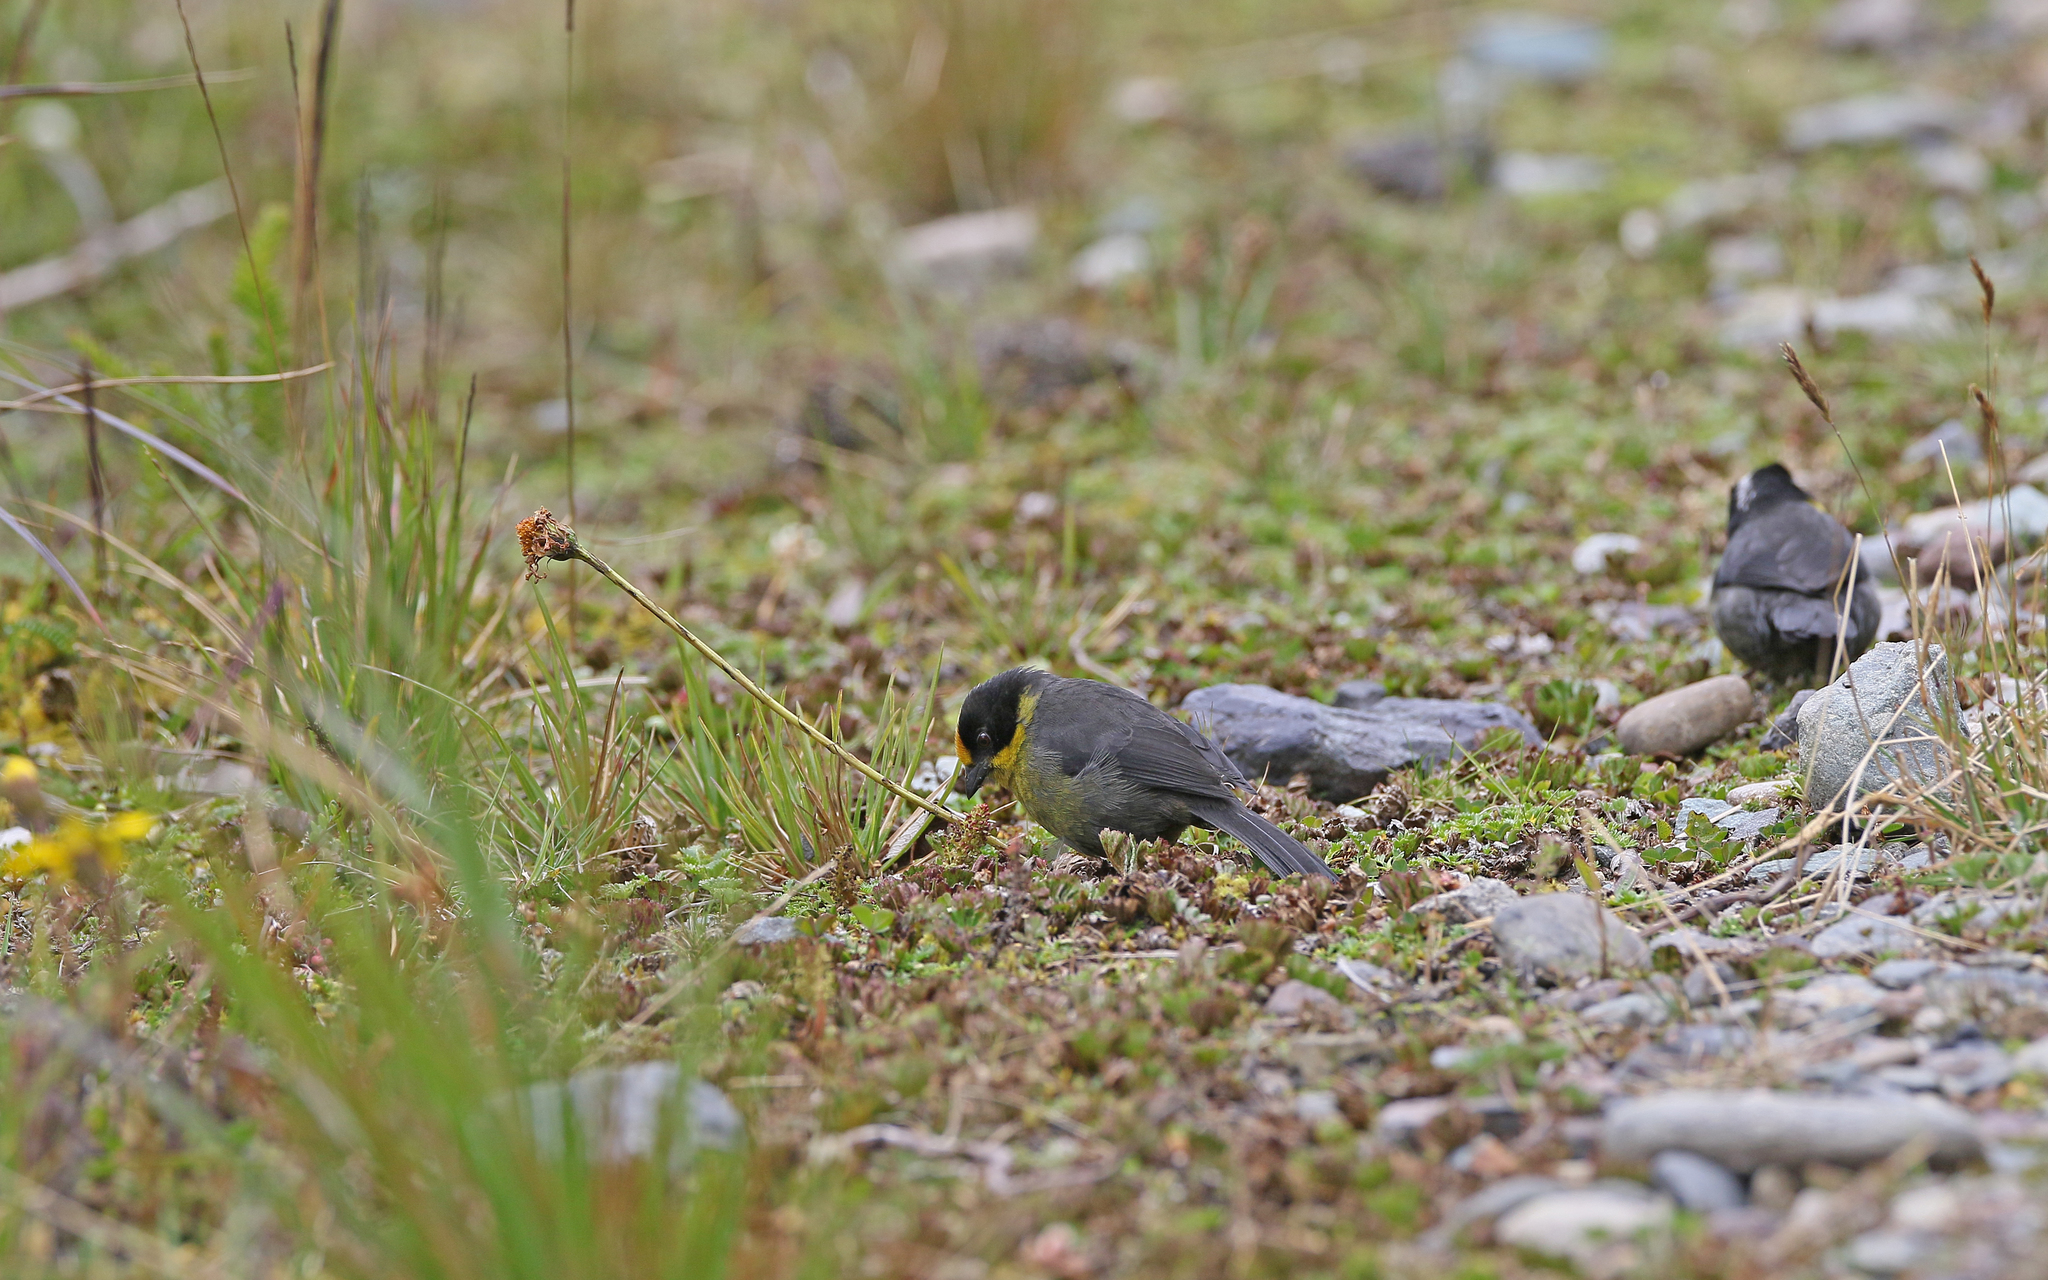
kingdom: Animalia
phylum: Chordata
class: Aves
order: Passeriformes
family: Passerellidae
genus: Atlapetes
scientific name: Atlapetes pallidinucha
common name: Pale-naped brushfinch
